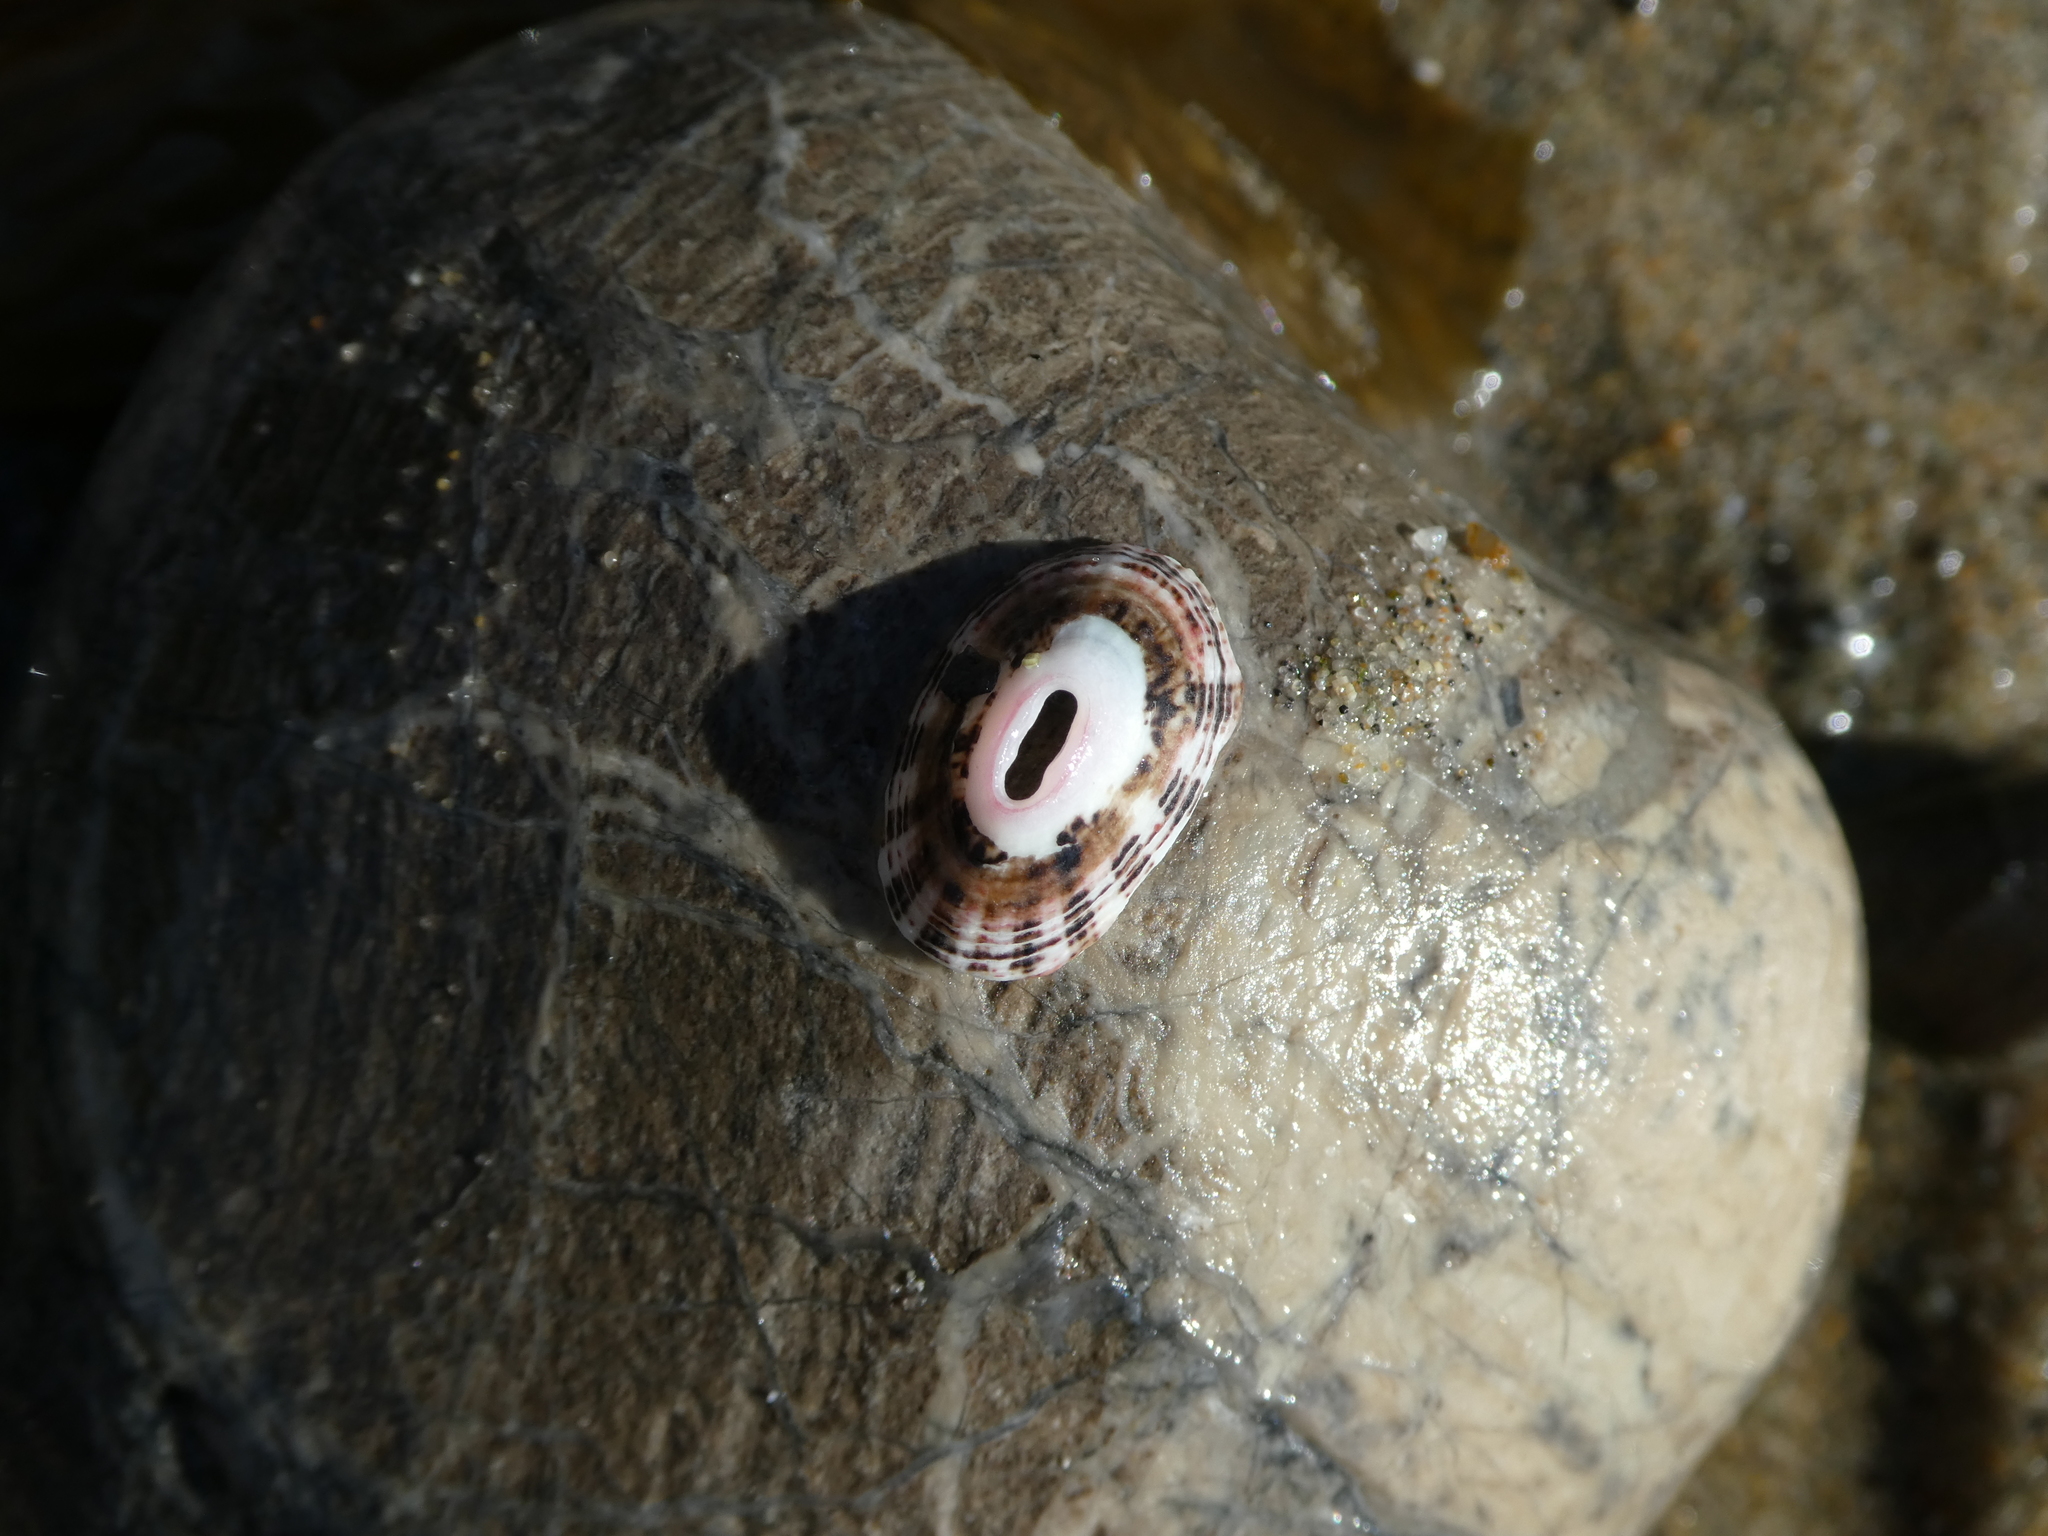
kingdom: Animalia
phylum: Mollusca
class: Gastropoda
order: Lepetellida
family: Fissurellidae
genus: Fissurella
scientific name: Fissurella volcano
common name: Volcano keyhole limpet
